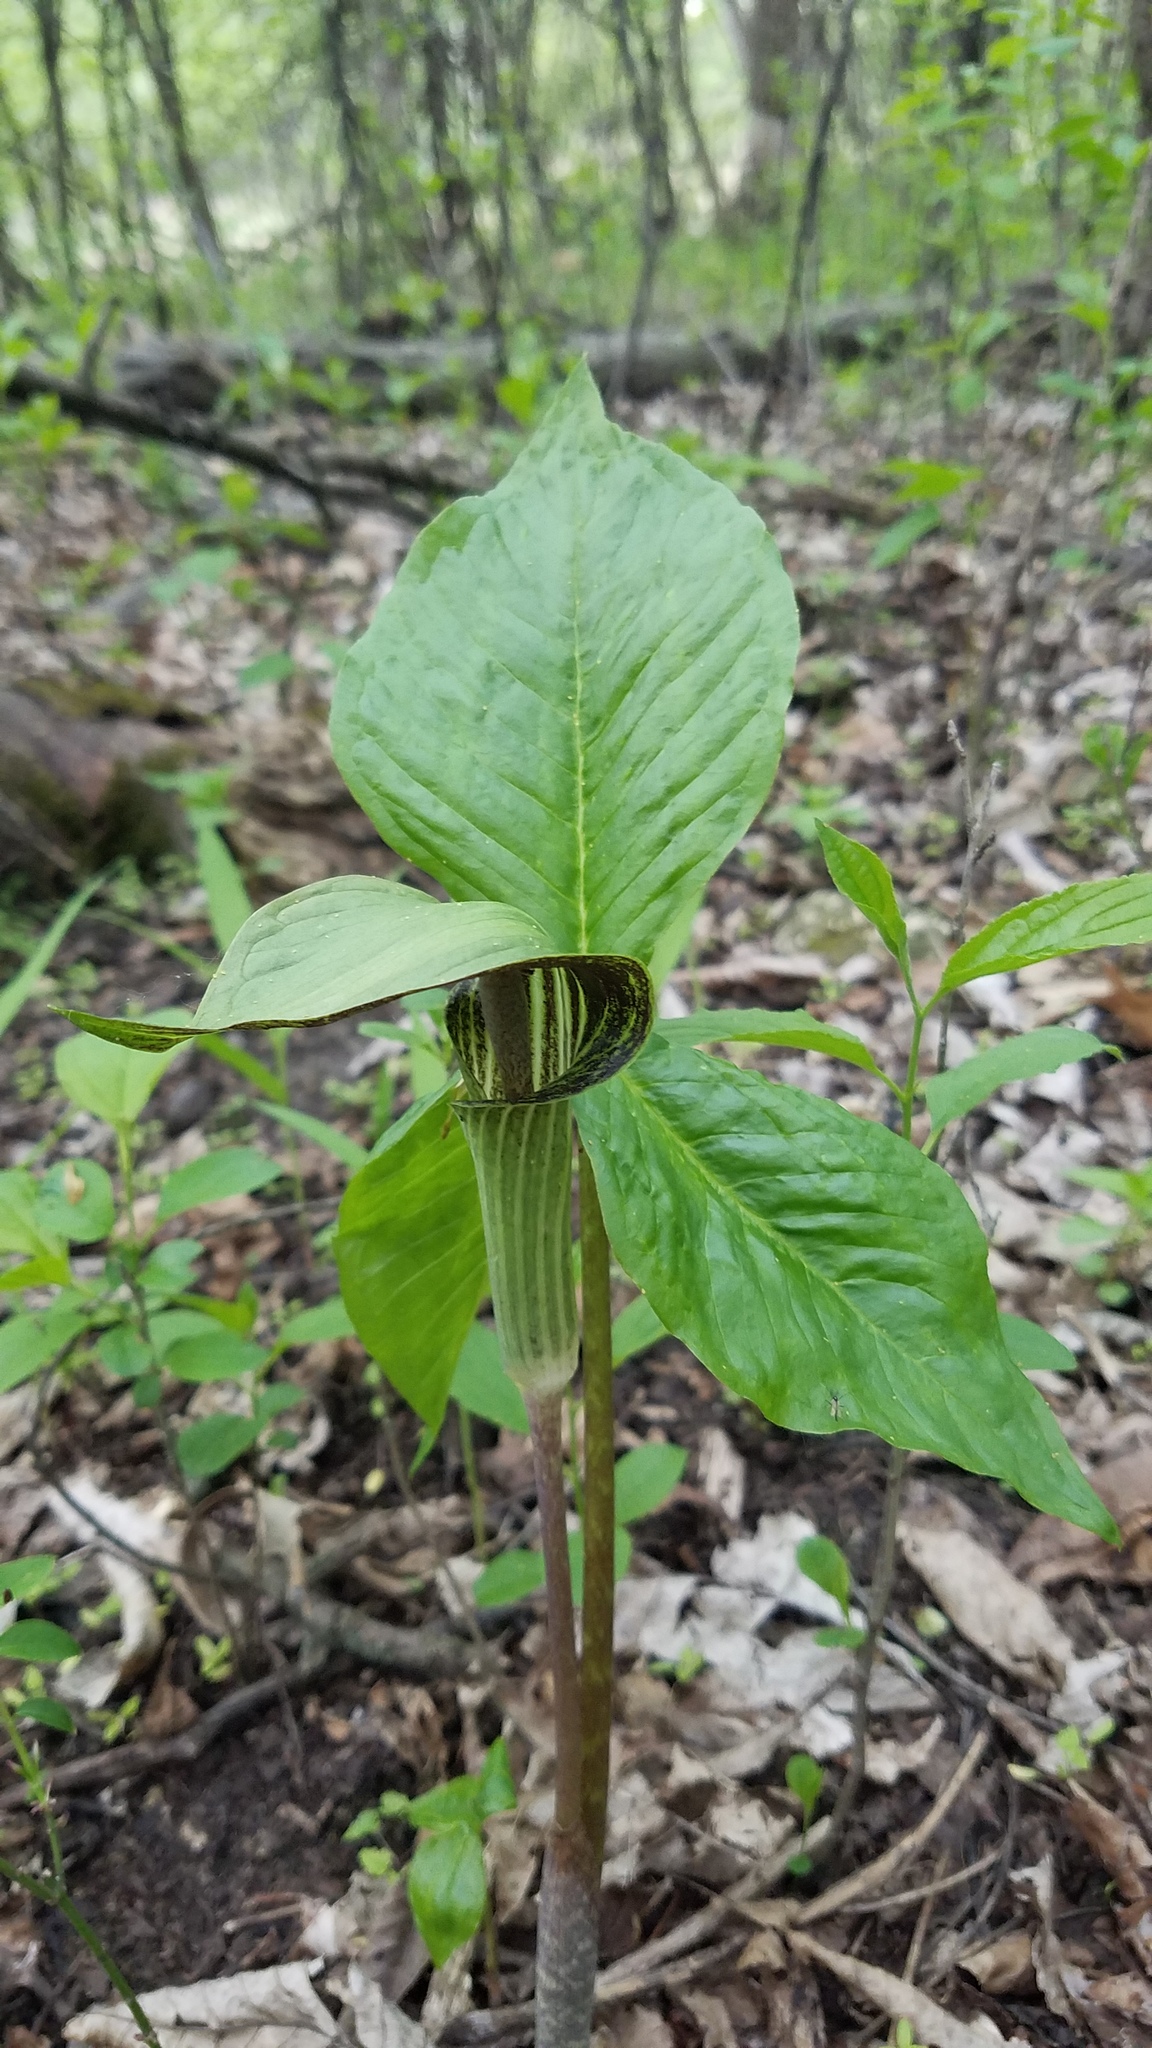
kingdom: Plantae
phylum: Tracheophyta
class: Liliopsida
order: Alismatales
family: Araceae
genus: Arisaema
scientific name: Arisaema triphyllum
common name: Jack-in-the-pulpit
